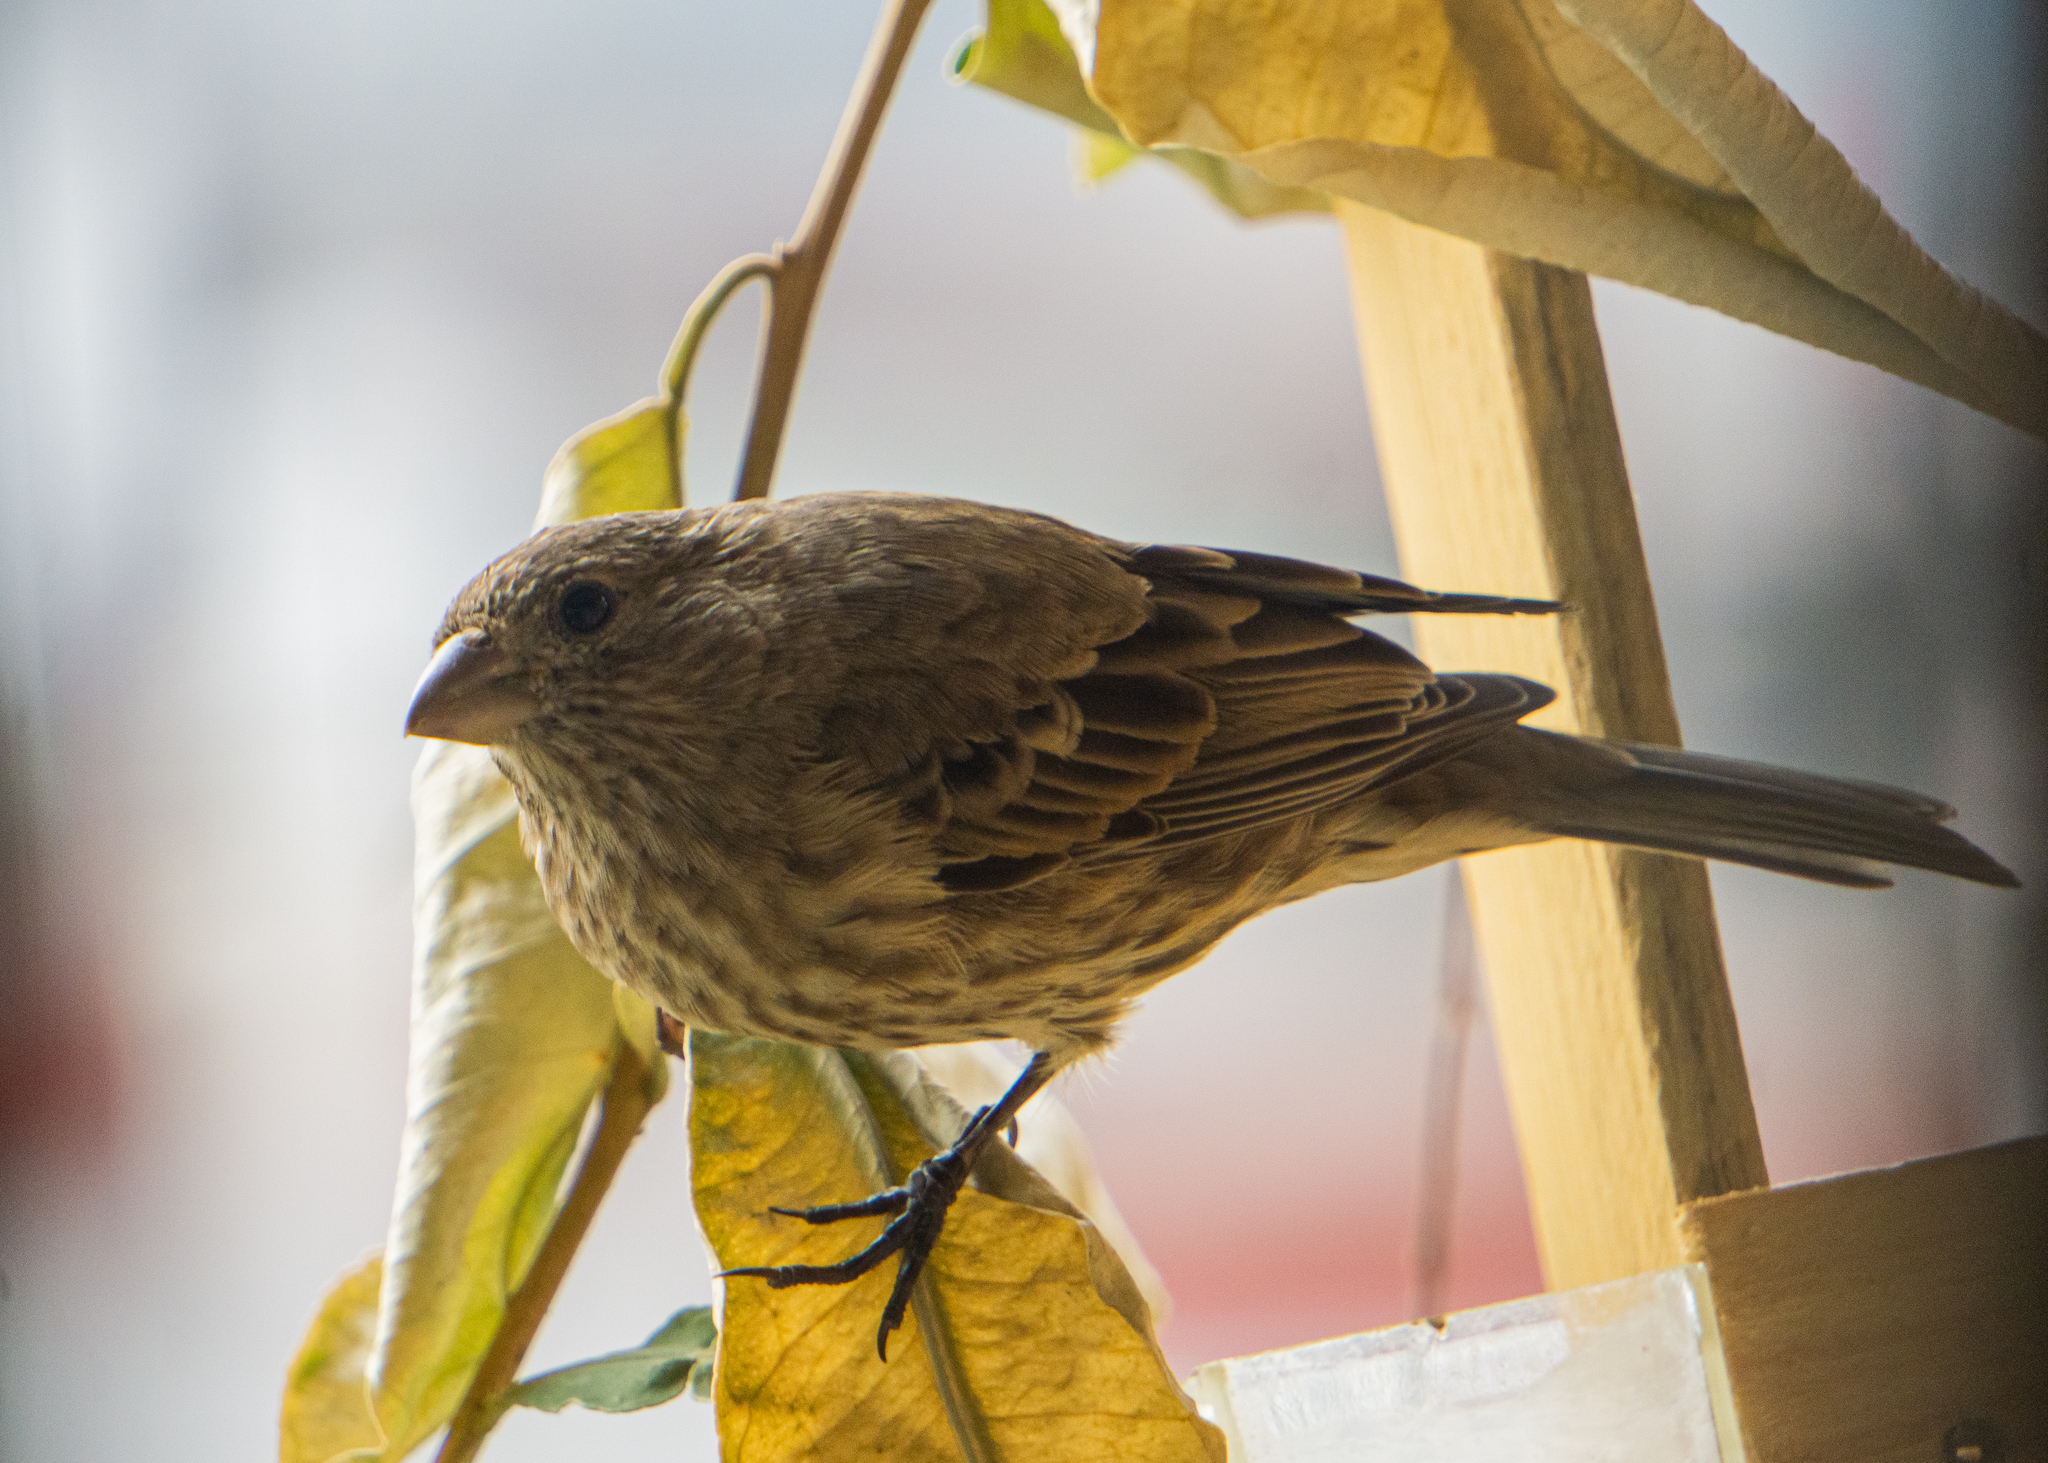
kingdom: Animalia
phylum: Chordata
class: Aves
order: Passeriformes
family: Fringillidae
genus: Haemorhous
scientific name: Haemorhous mexicanus
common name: House finch
